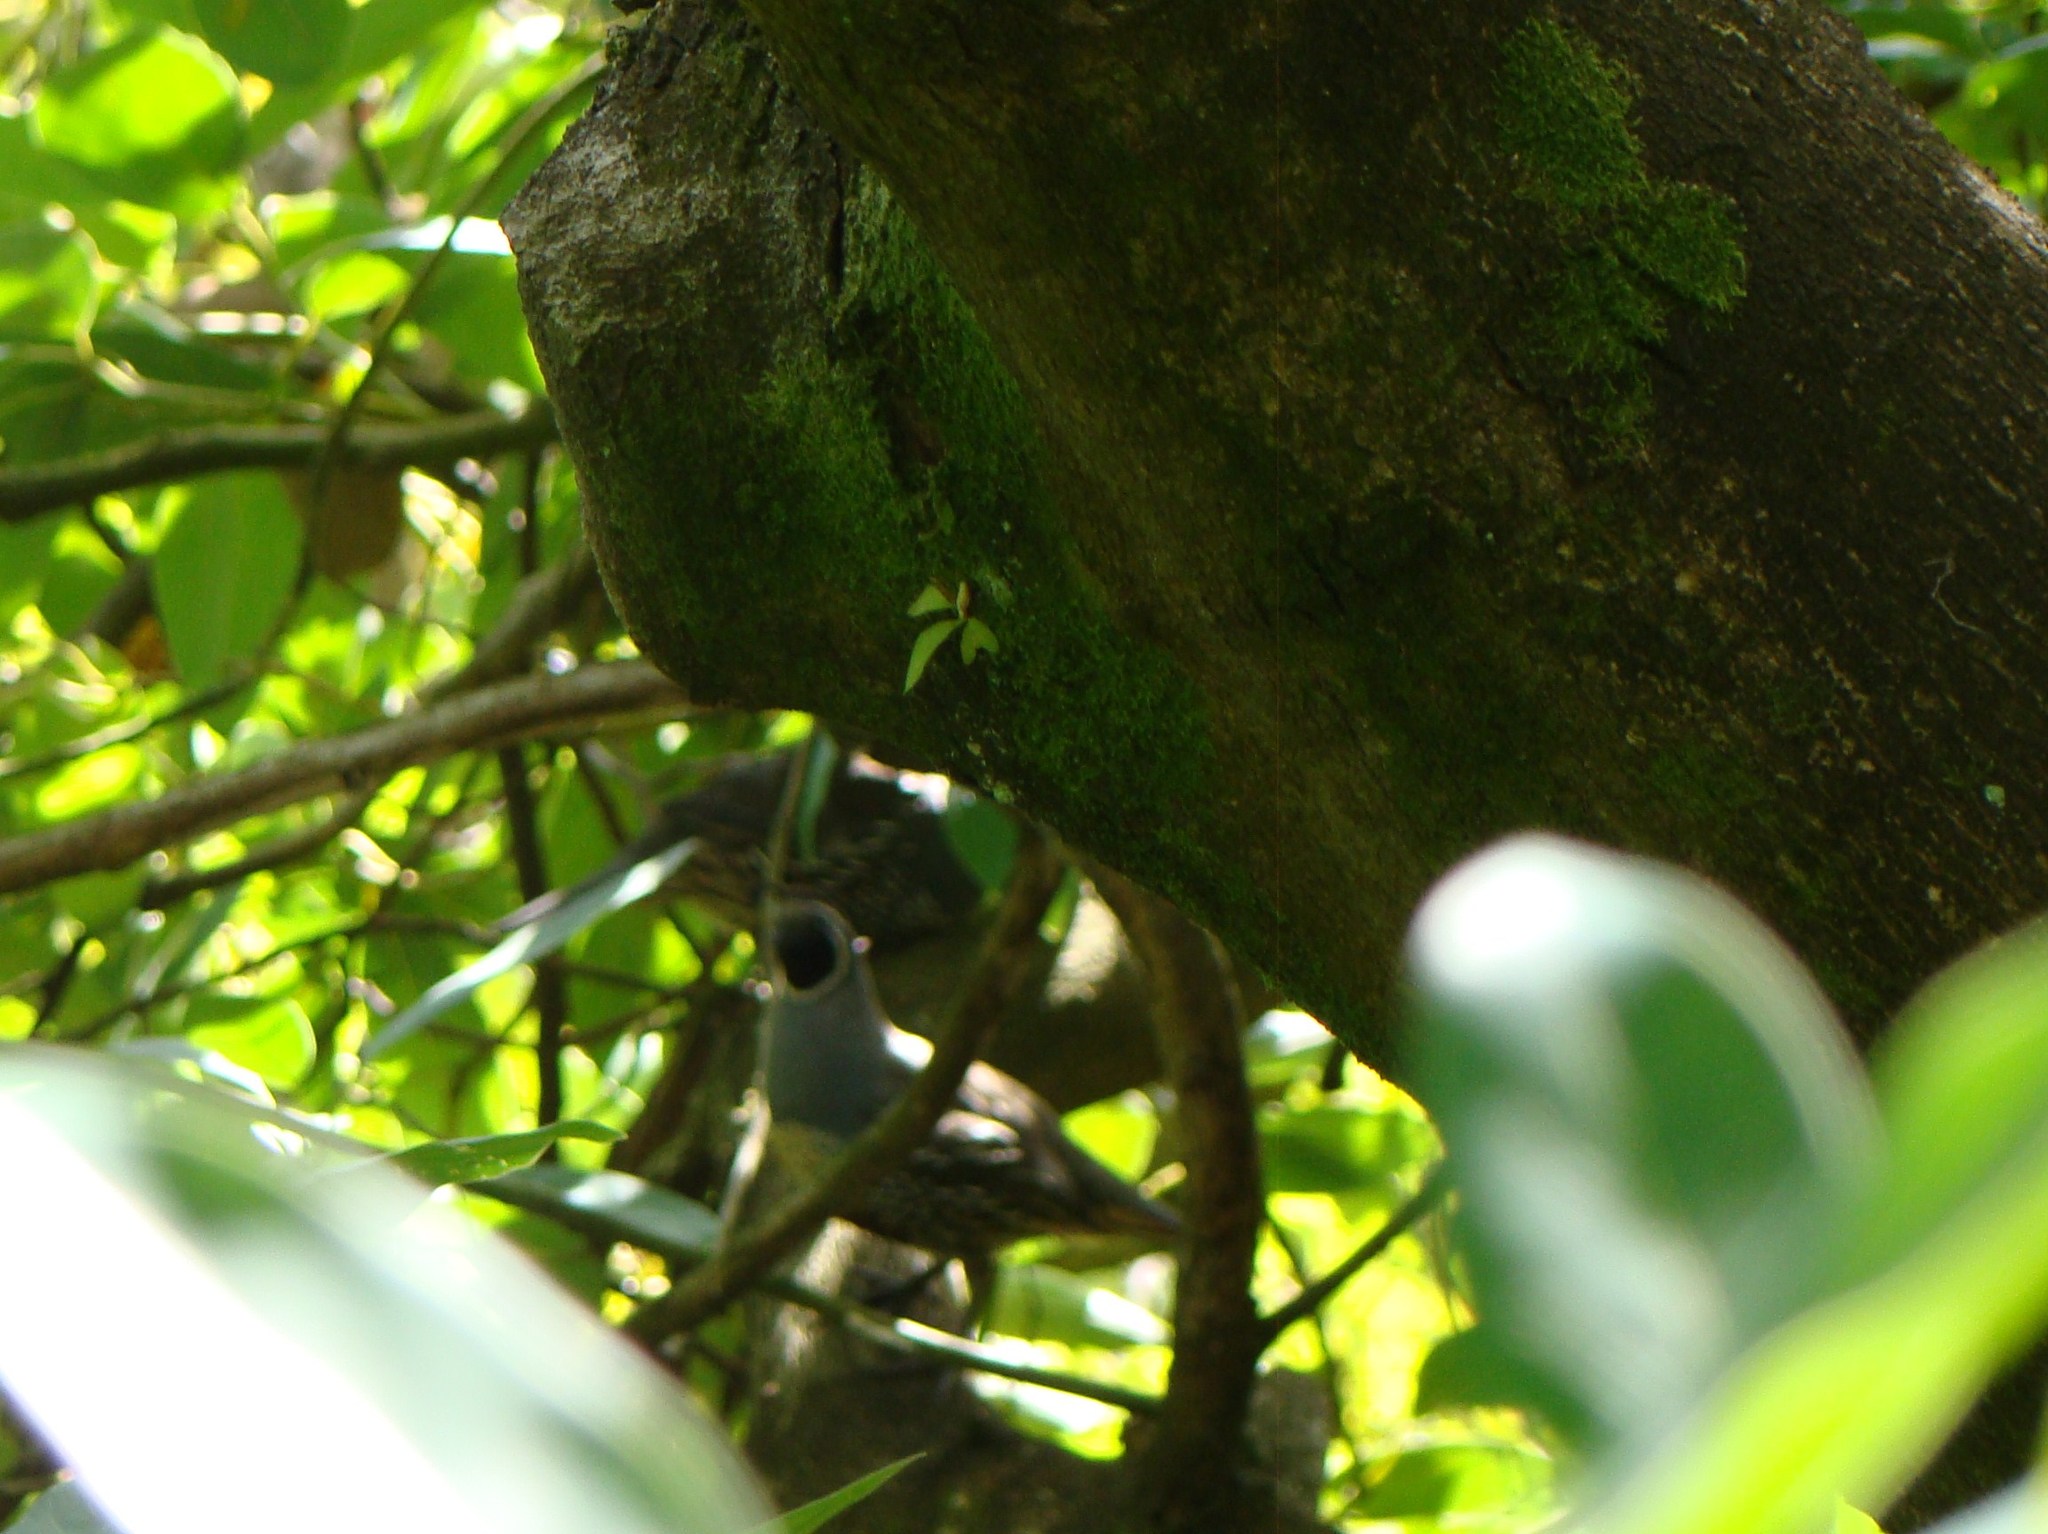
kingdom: Animalia
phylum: Chordata
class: Aves
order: Galliformes
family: Odontophoridae
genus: Callipepla
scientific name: Callipepla californica
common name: California quail
